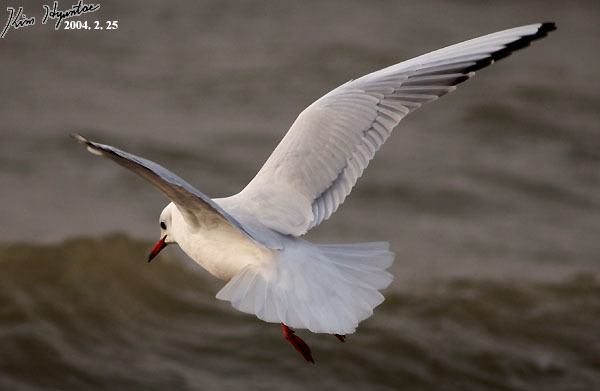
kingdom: Animalia
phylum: Chordata
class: Aves
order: Charadriiformes
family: Laridae
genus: Chroicocephalus
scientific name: Chroicocephalus ridibundus
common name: Black-headed gull
